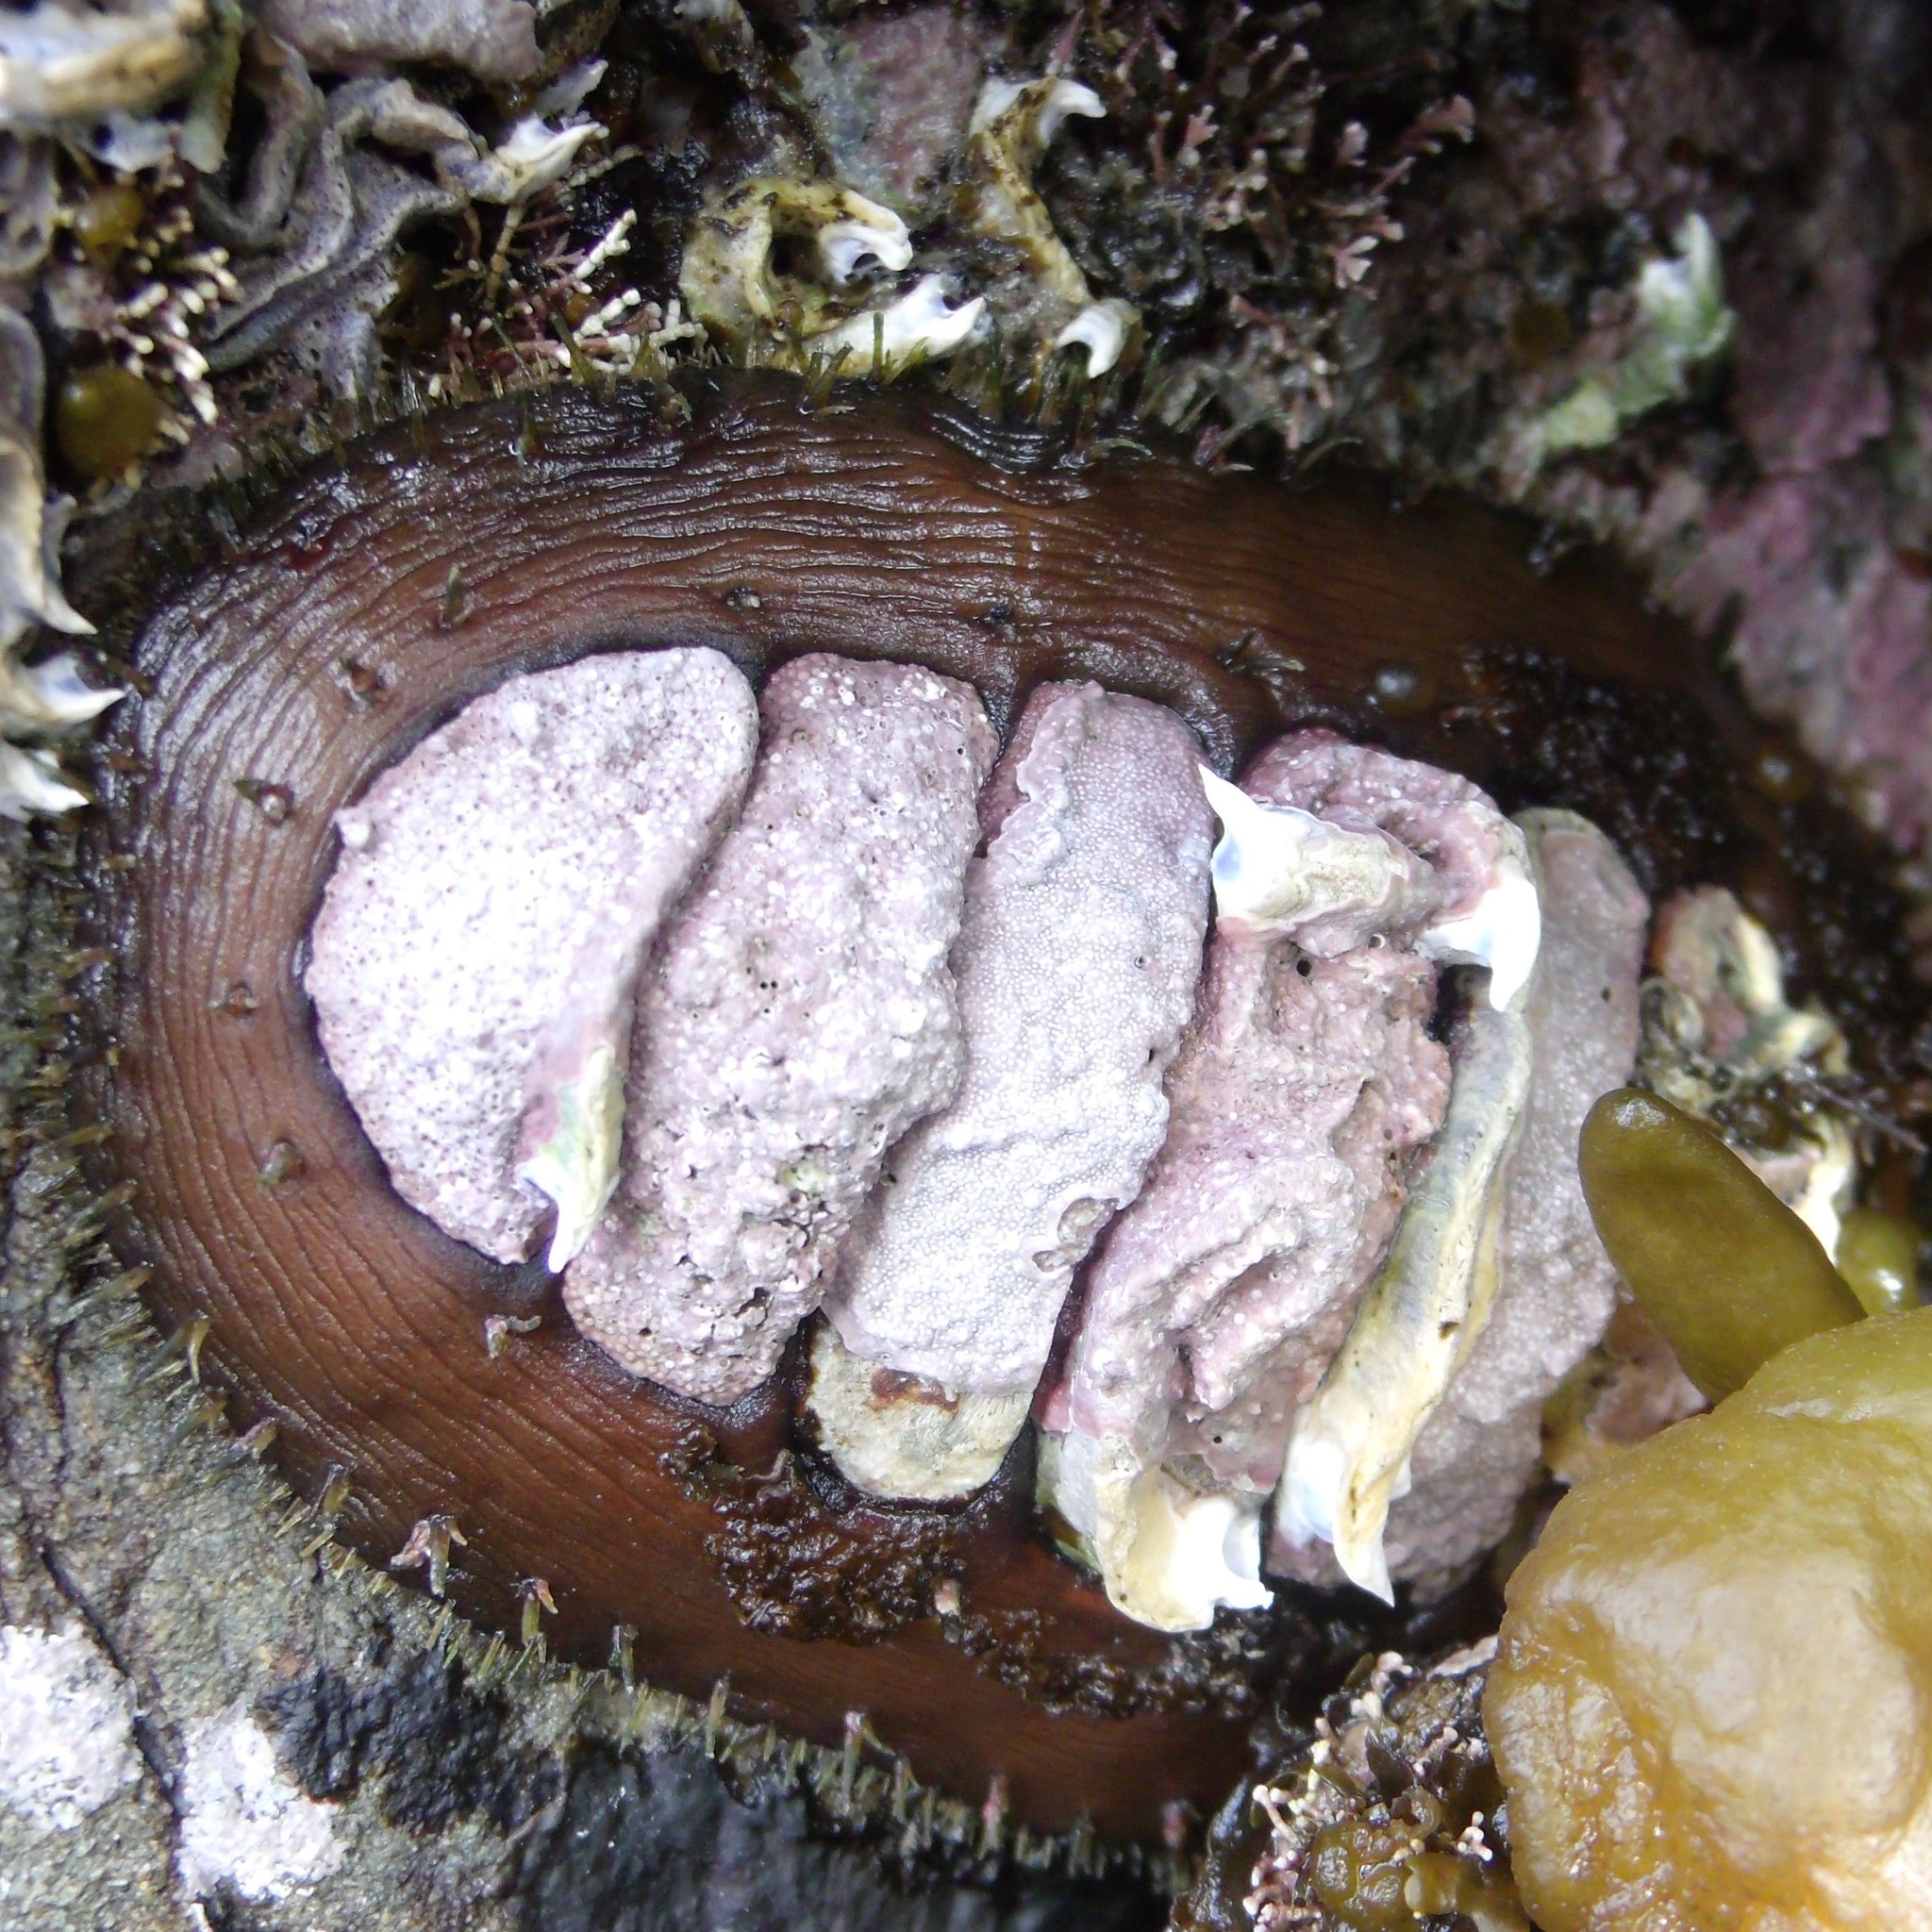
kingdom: Animalia
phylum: Mollusca
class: Polyplacophora
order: Chitonida
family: Mopaliidae
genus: Plaxiphora
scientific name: Plaxiphora biramosa
